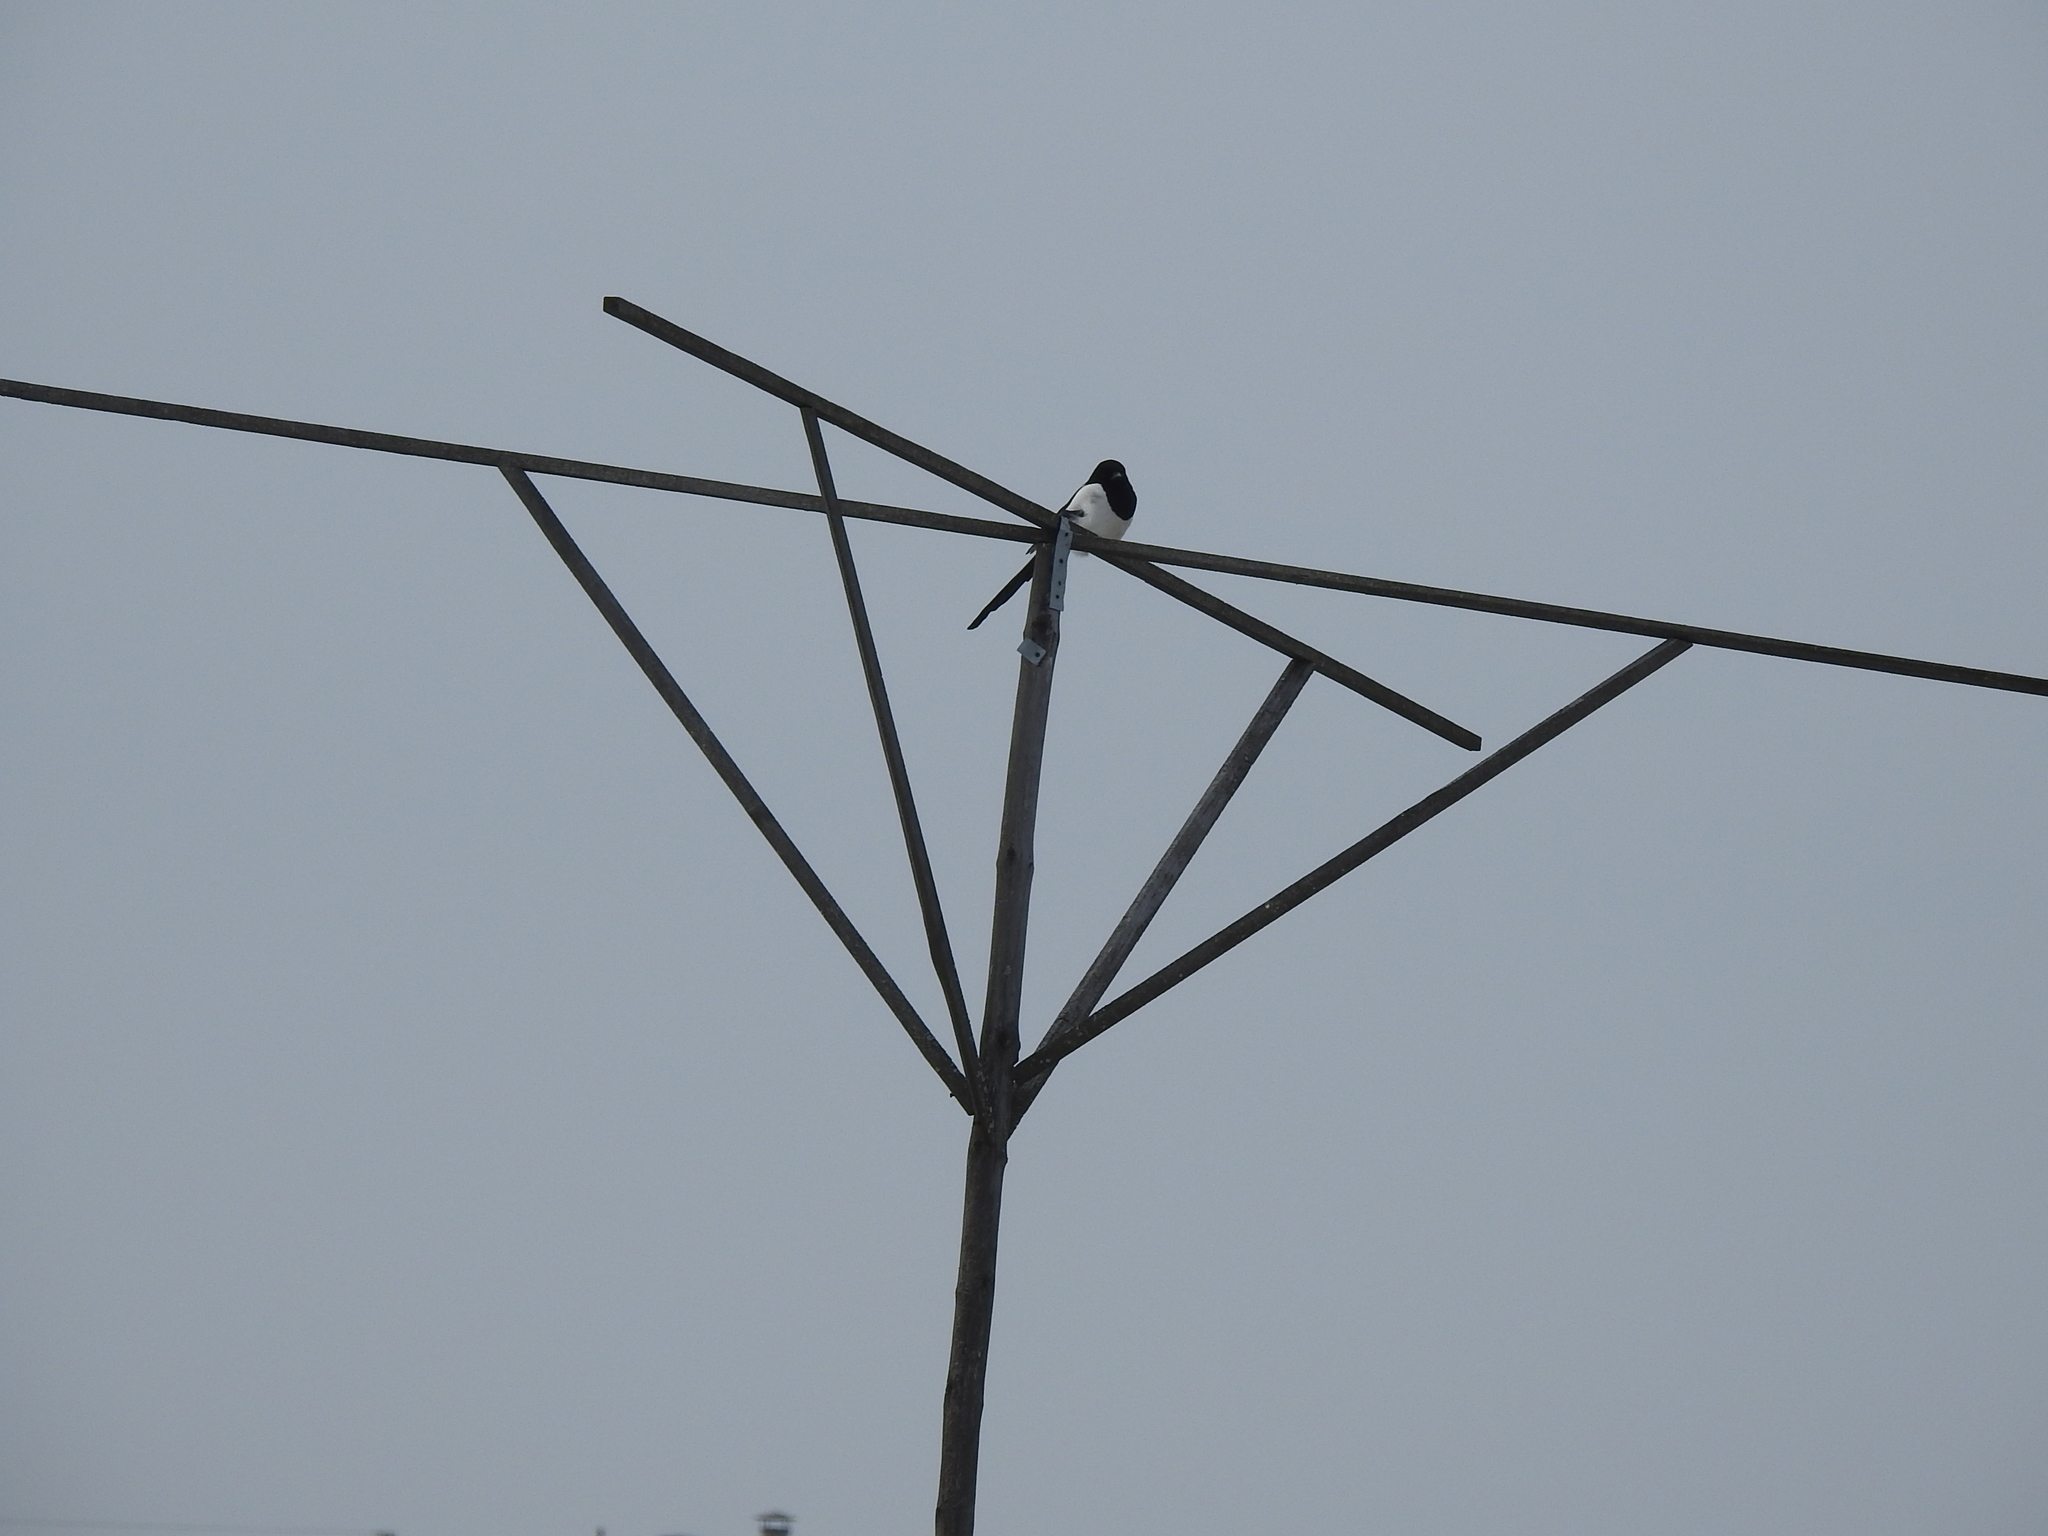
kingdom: Animalia
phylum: Chordata
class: Aves
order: Passeriformes
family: Corvidae
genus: Pica
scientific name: Pica pica
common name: Eurasian magpie
